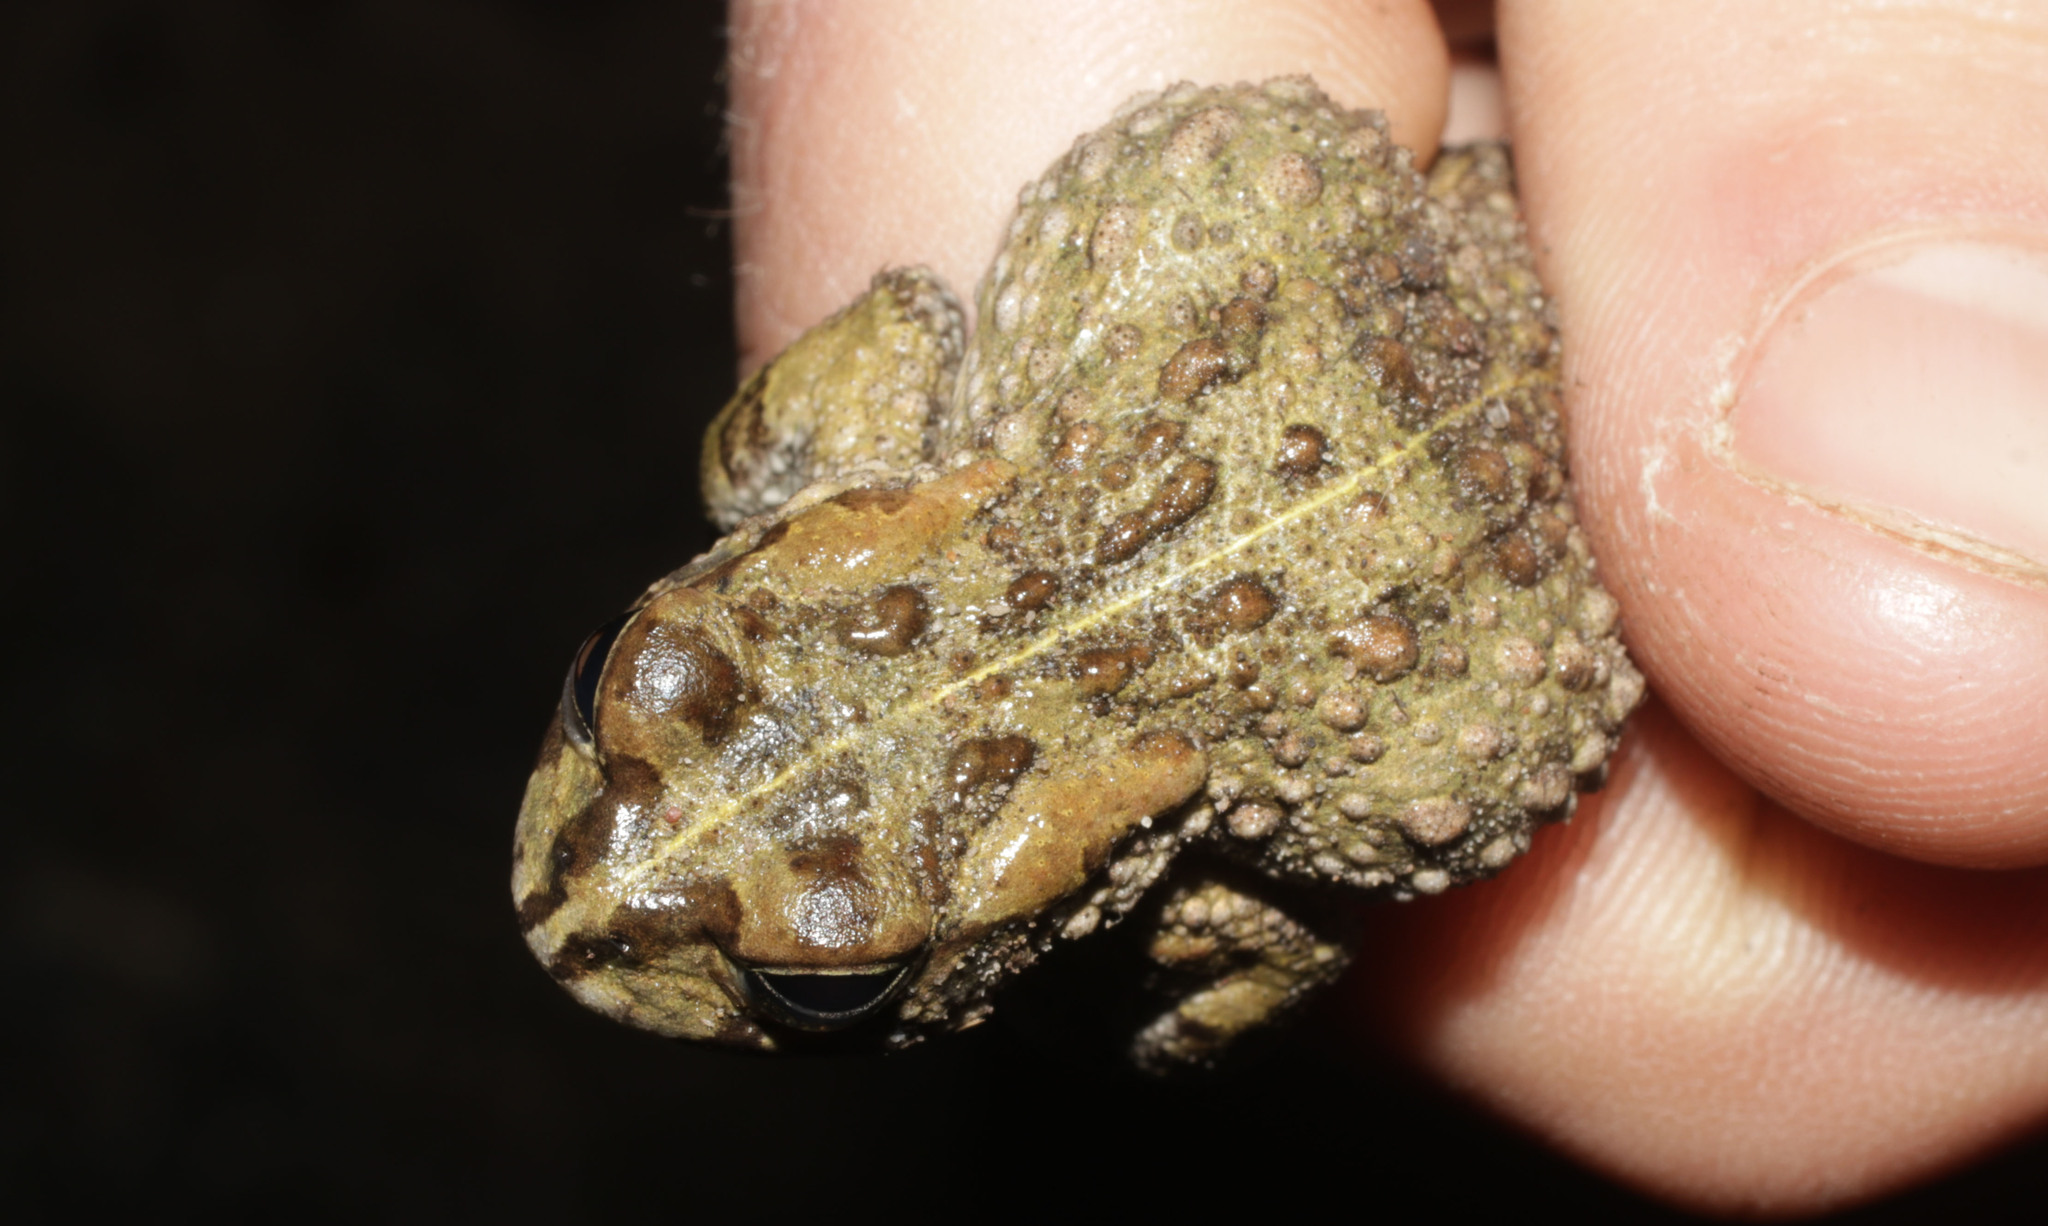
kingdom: Animalia
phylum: Chordata
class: Amphibia
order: Anura
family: Bufonidae
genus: Vandijkophrynus
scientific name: Vandijkophrynus angusticeps
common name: Sand toad
